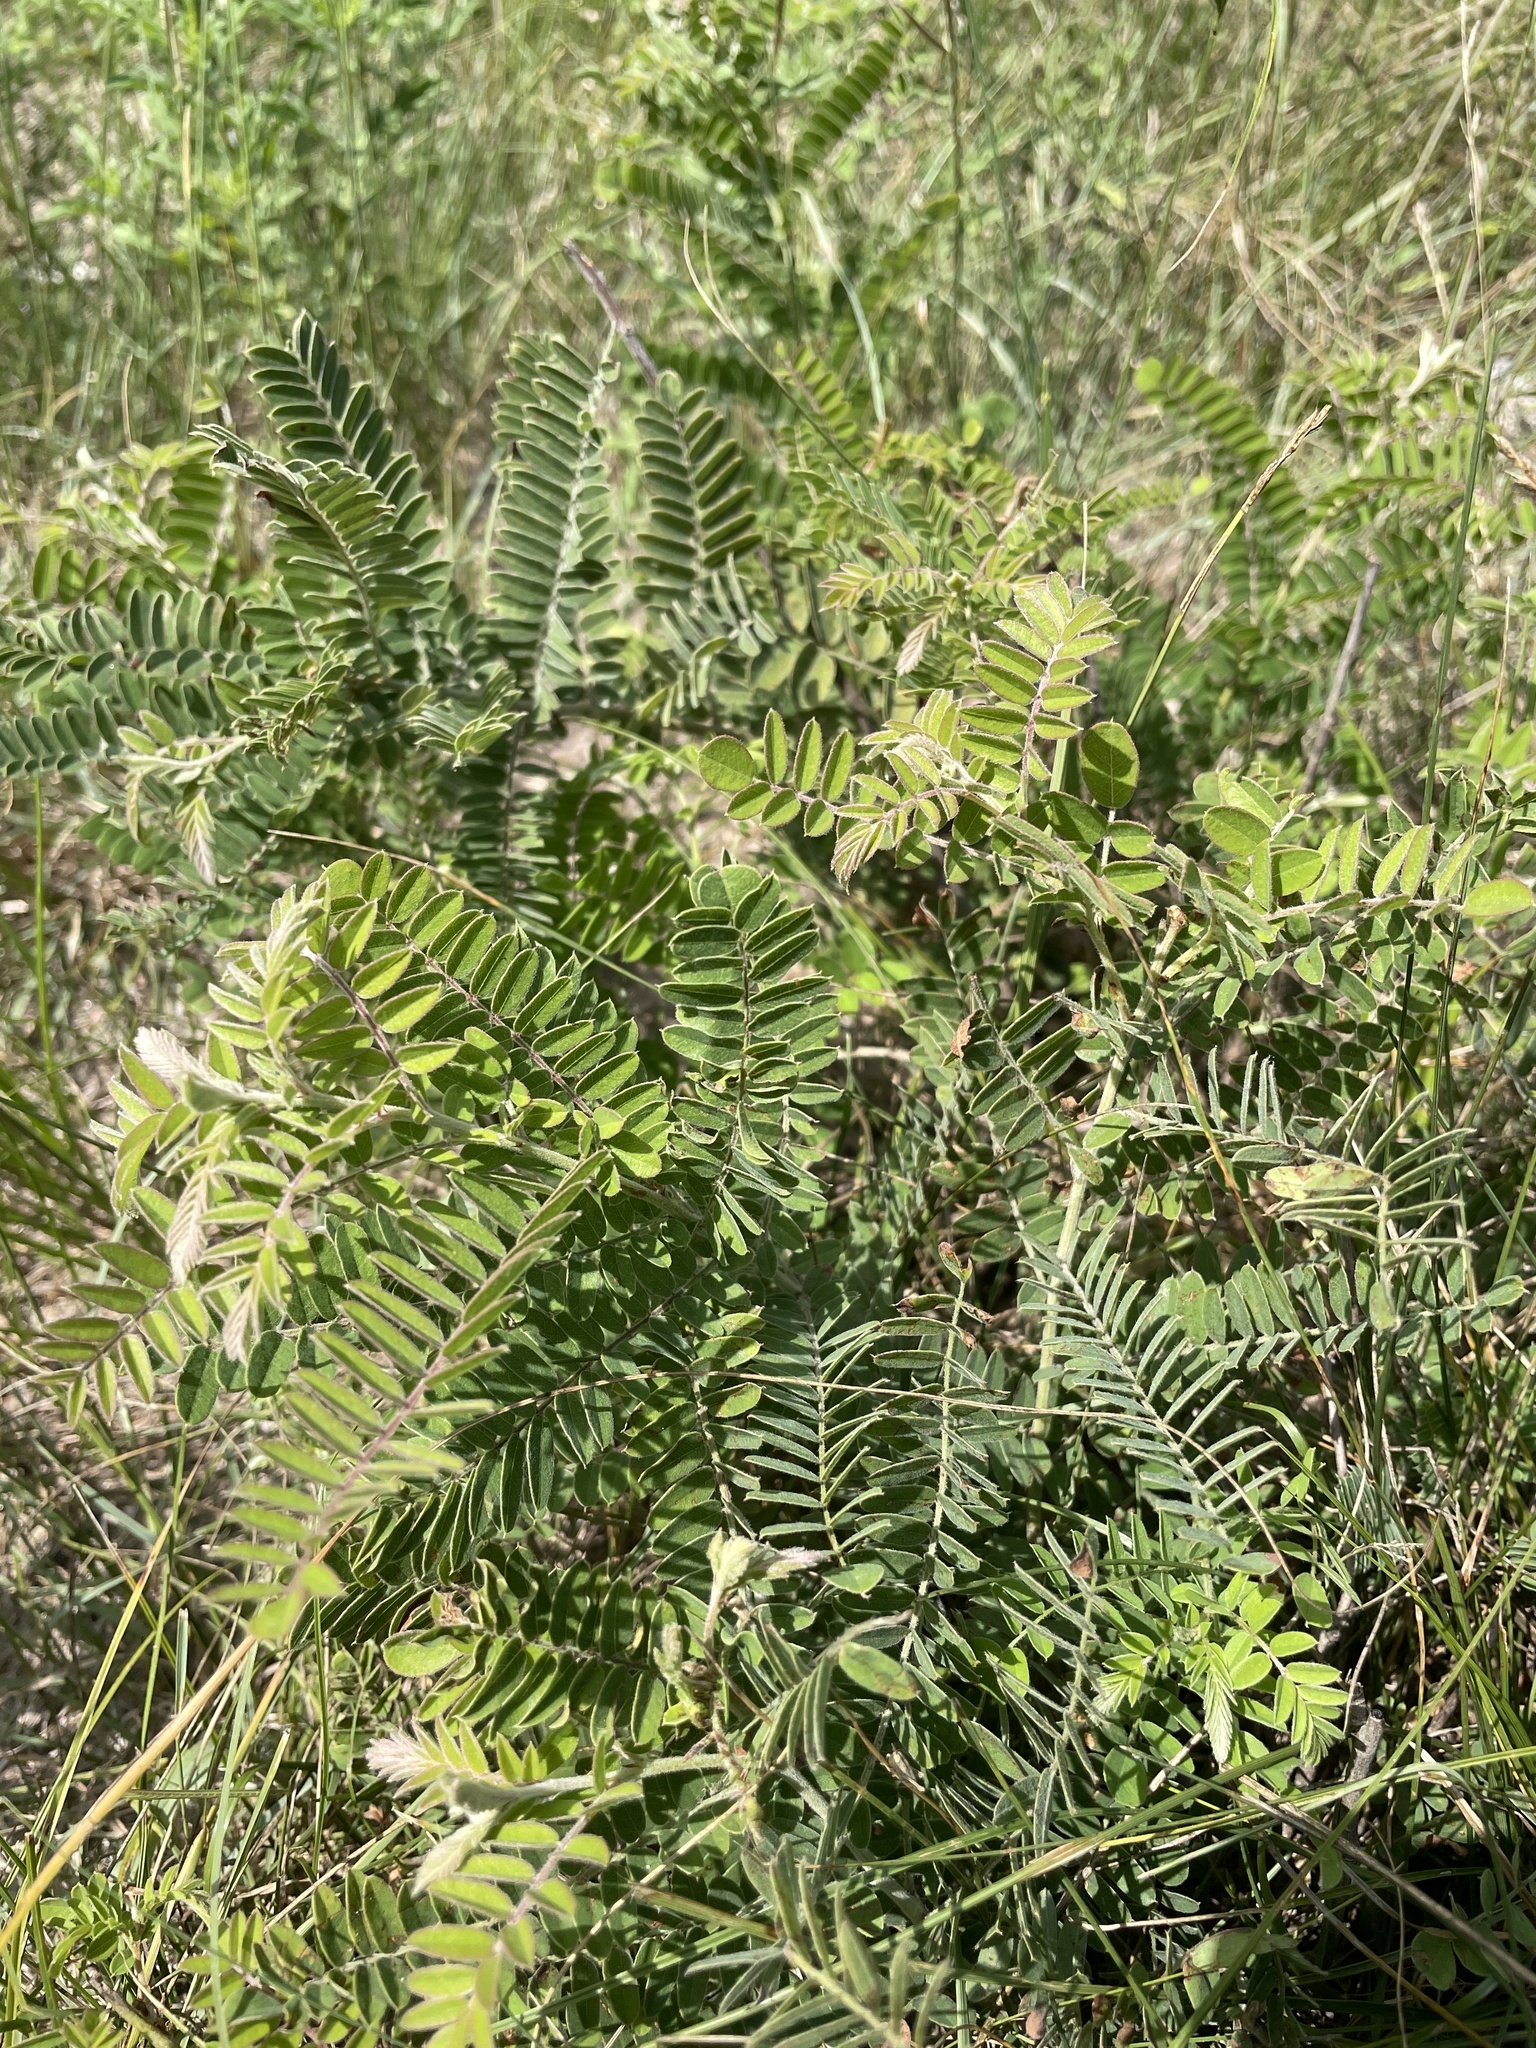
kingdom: Plantae
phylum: Tracheophyta
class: Magnoliopsida
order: Fabales
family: Fabaceae
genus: Amorpha
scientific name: Amorpha canescens
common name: Leadplant
